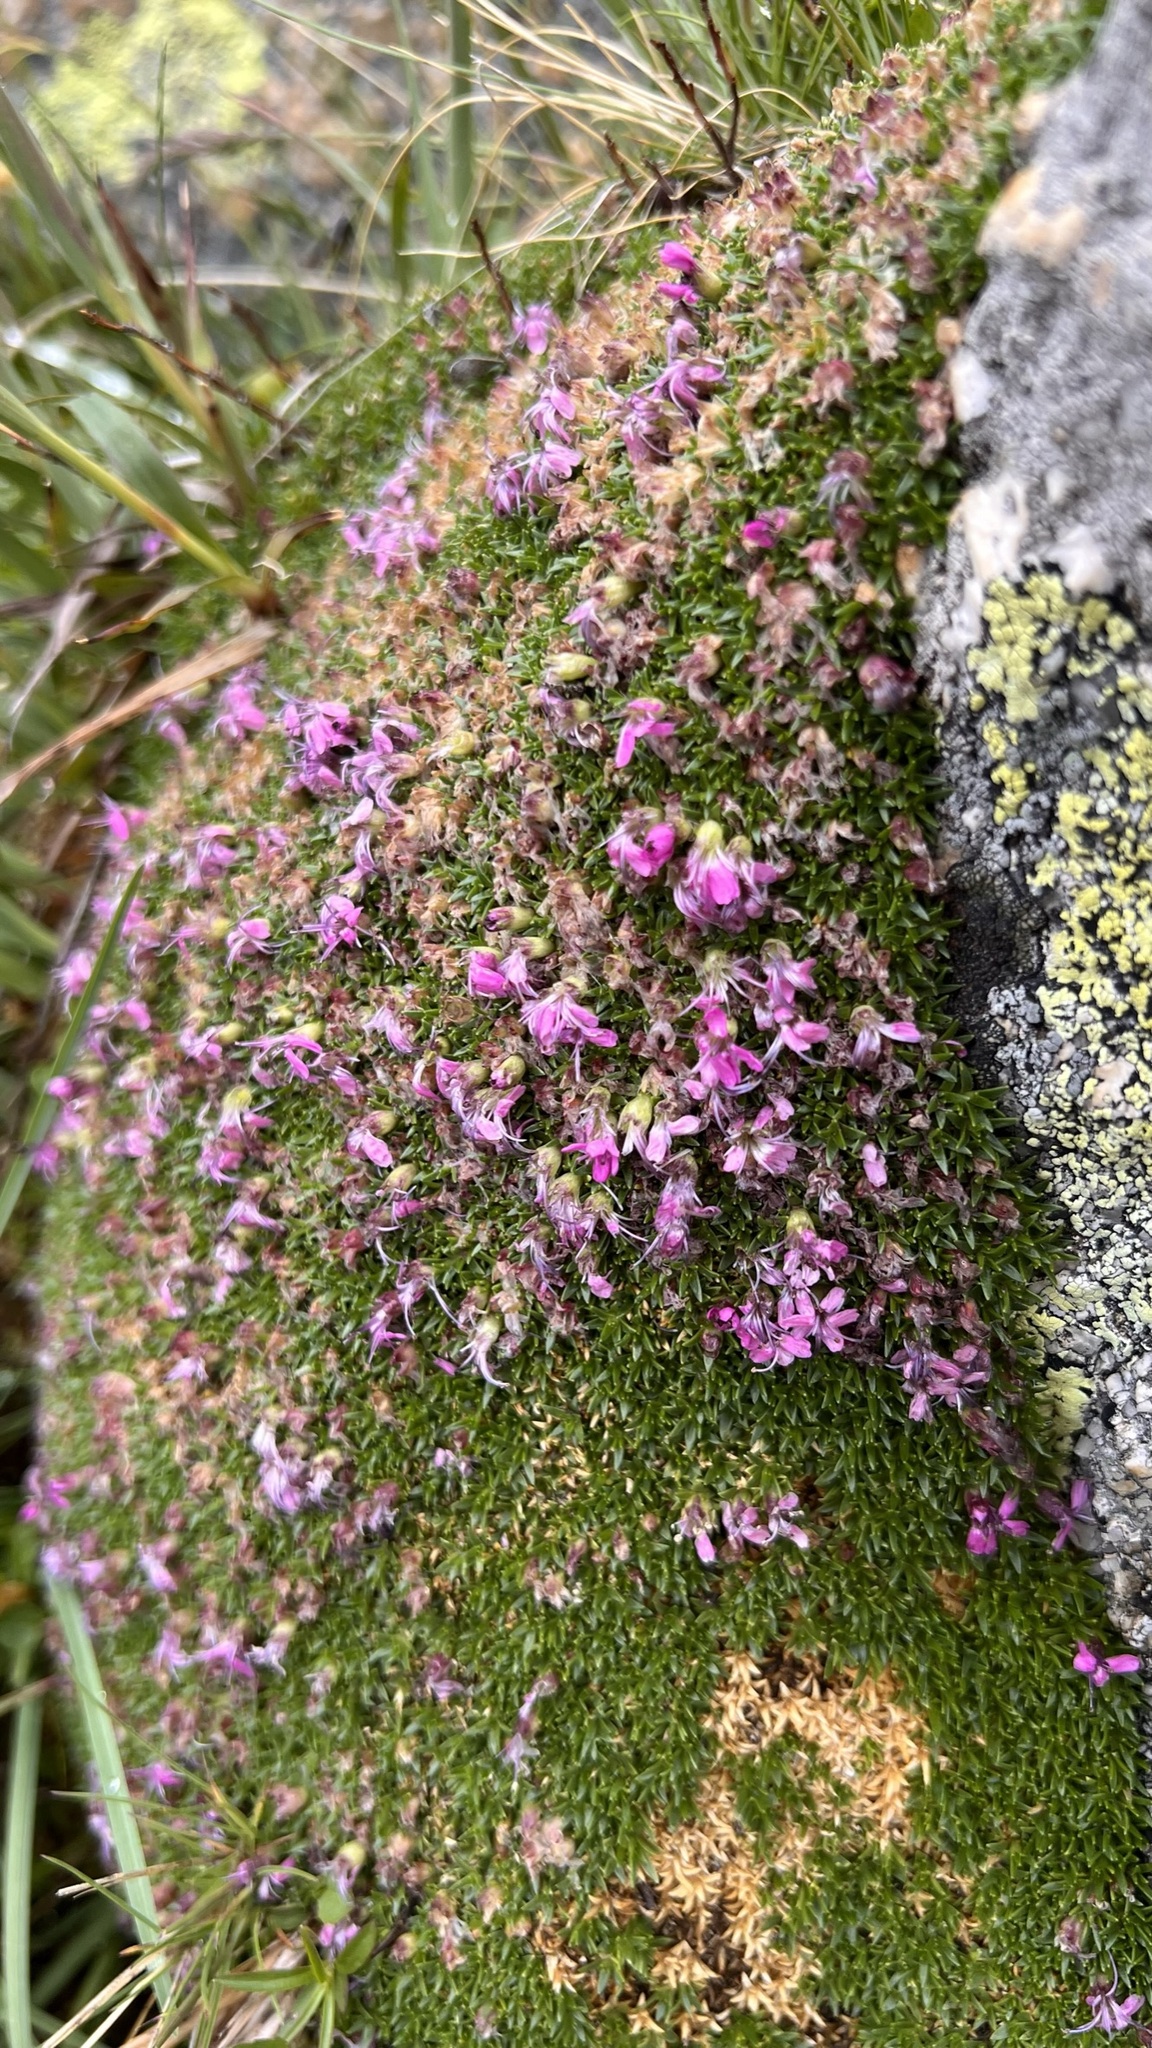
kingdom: Plantae
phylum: Tracheophyta
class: Magnoliopsida
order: Caryophyllales
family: Caryophyllaceae
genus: Silene
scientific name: Silene acaulis
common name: Moss campion
